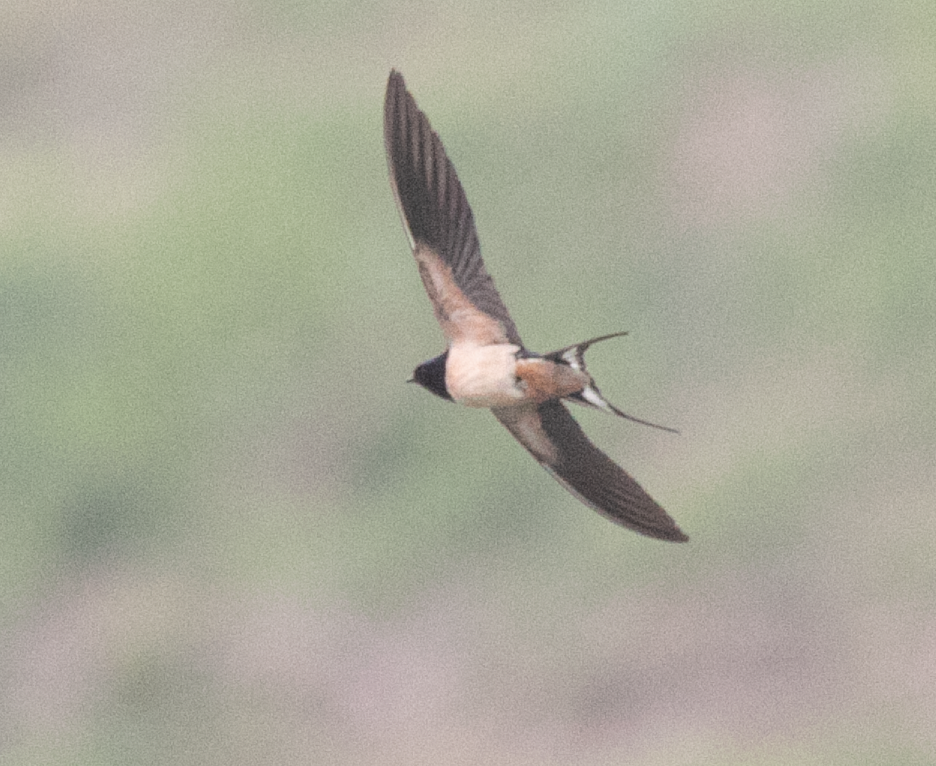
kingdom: Animalia
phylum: Chordata
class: Aves
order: Passeriformes
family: Hirundinidae
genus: Hirundo
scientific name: Hirundo rustica
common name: Barn swallow
